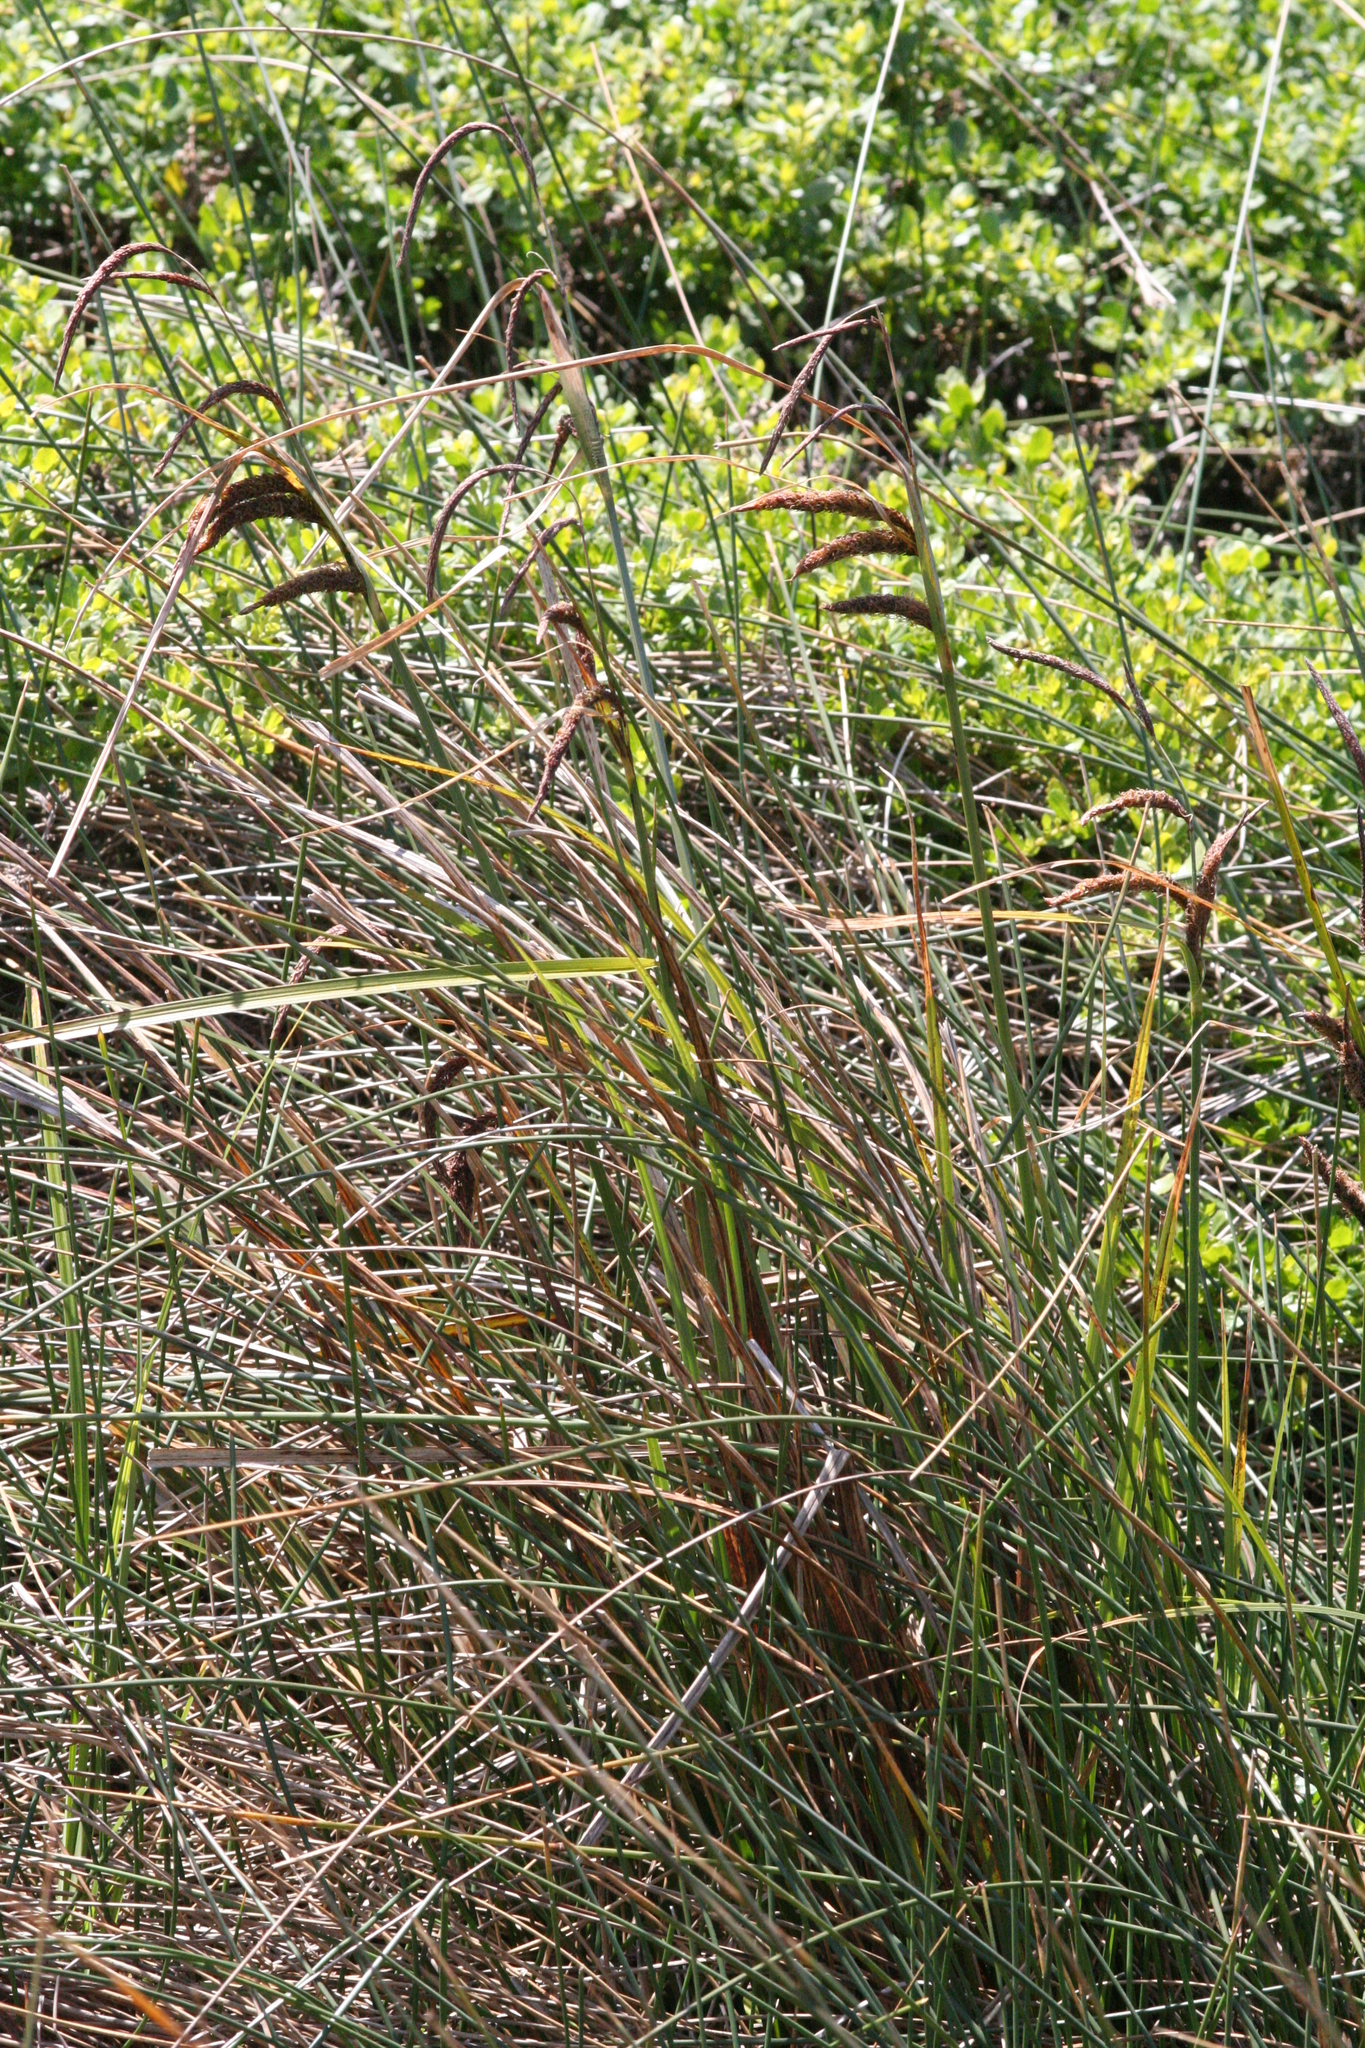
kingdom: Plantae
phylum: Tracheophyta
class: Liliopsida
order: Poales
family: Cyperaceae
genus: Carex
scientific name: Carex obnupta
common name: Slough sedge
